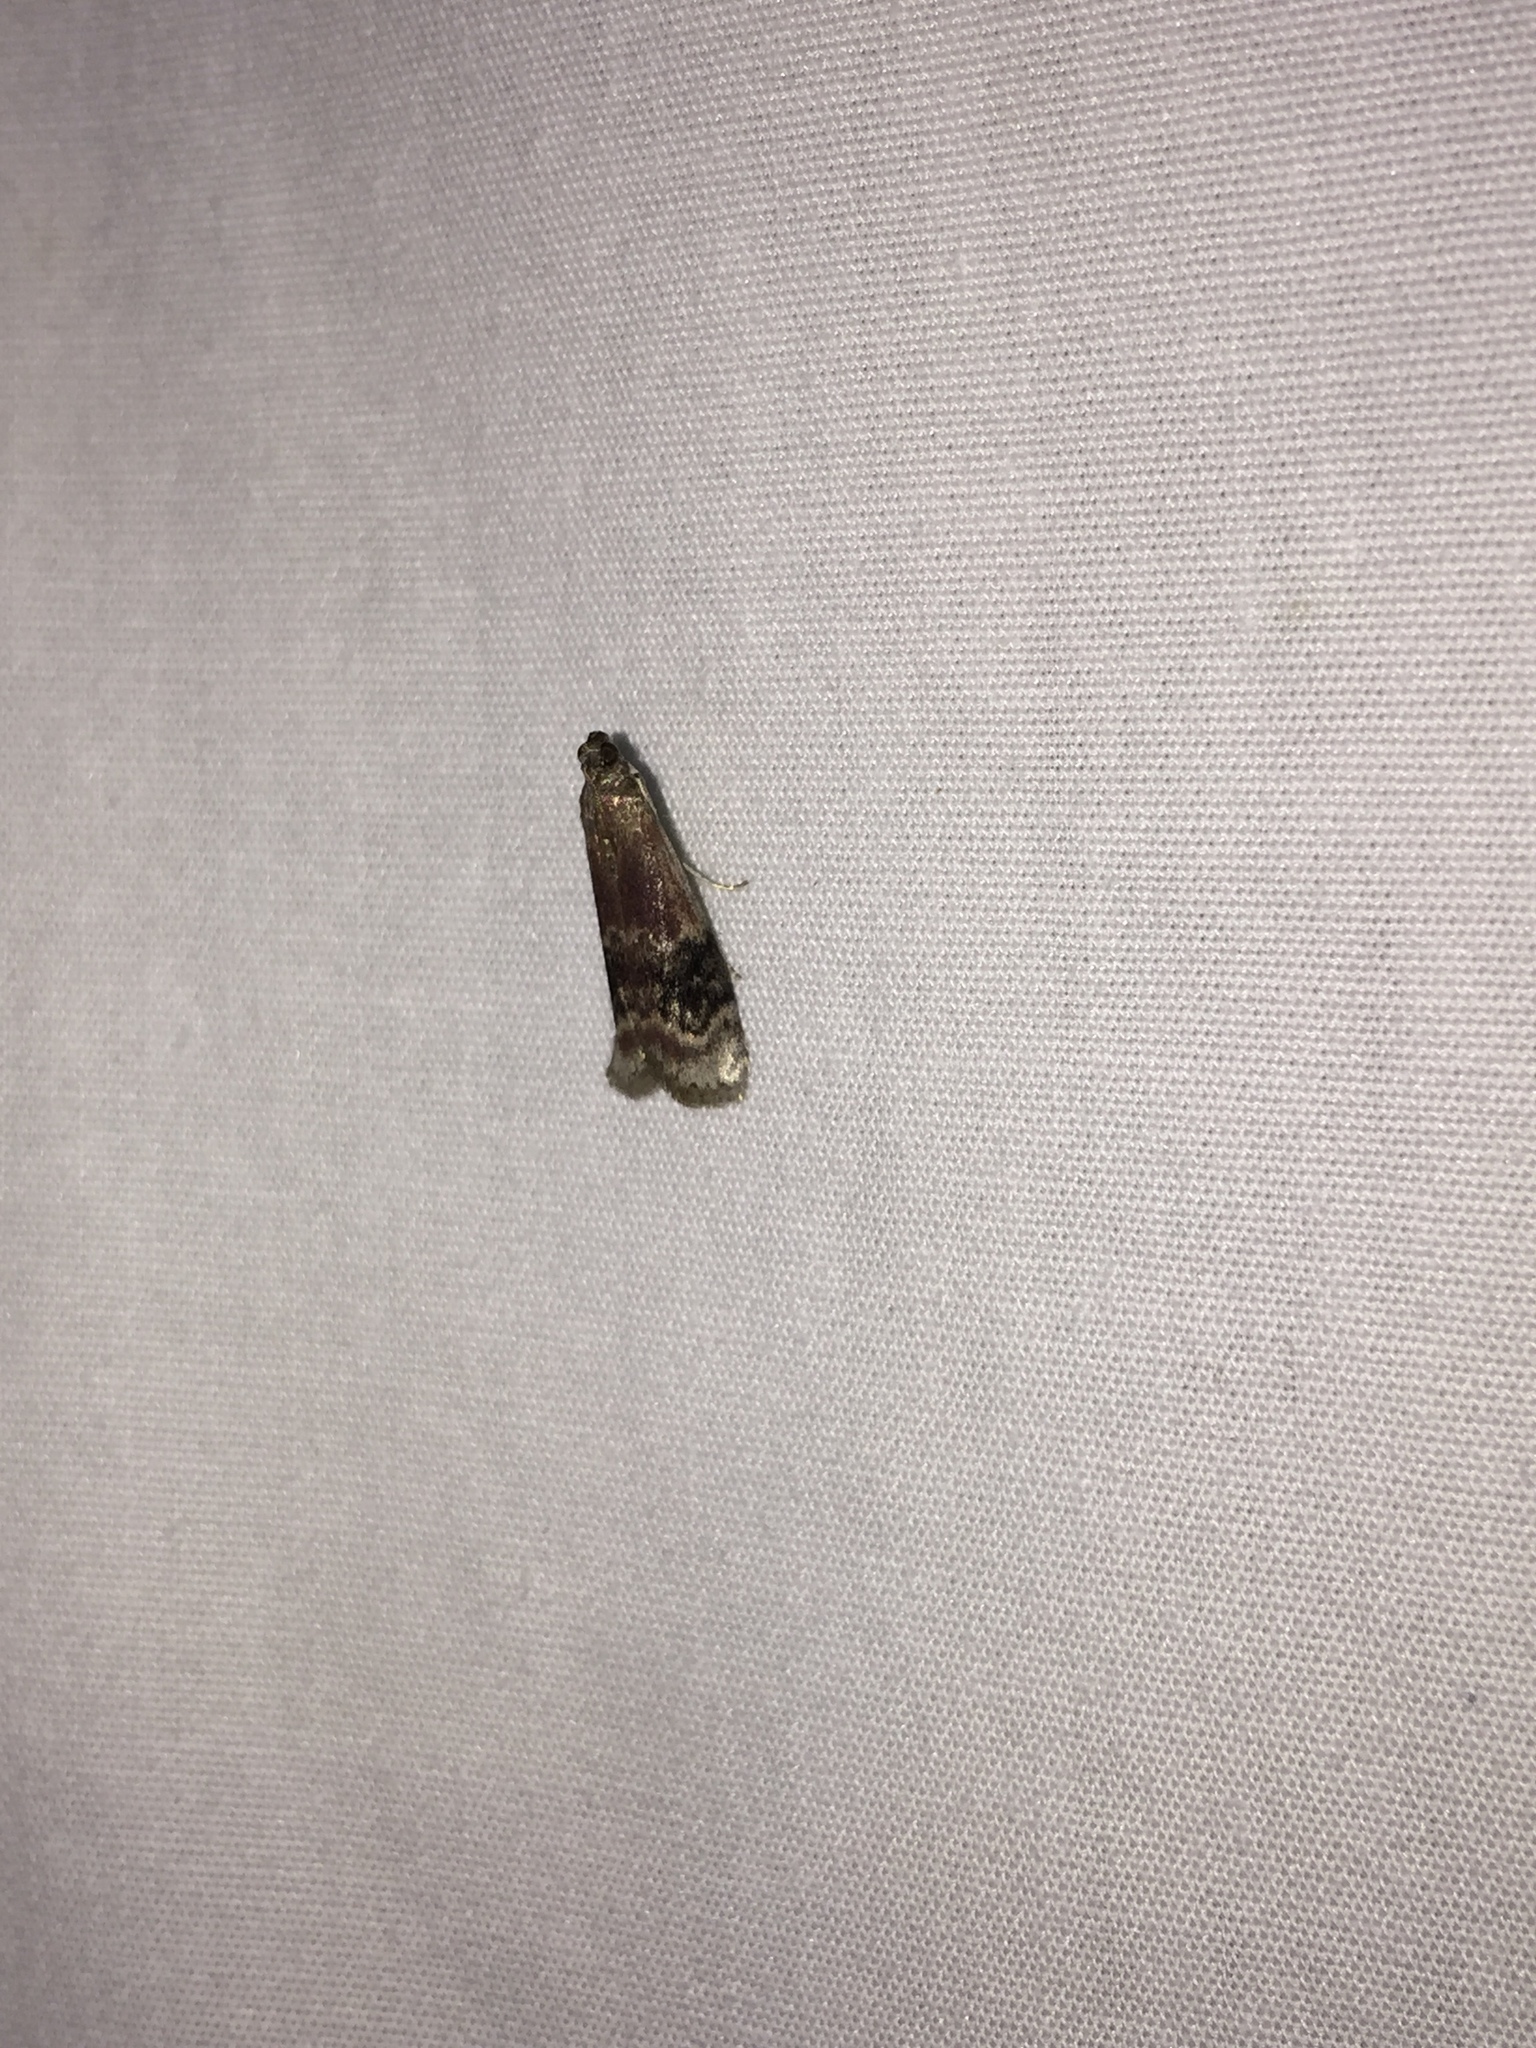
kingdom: Animalia
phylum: Arthropoda
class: Insecta
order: Lepidoptera
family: Pyralidae
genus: Euzophera
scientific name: Euzophera semifuneralis
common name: American plum borer moth
